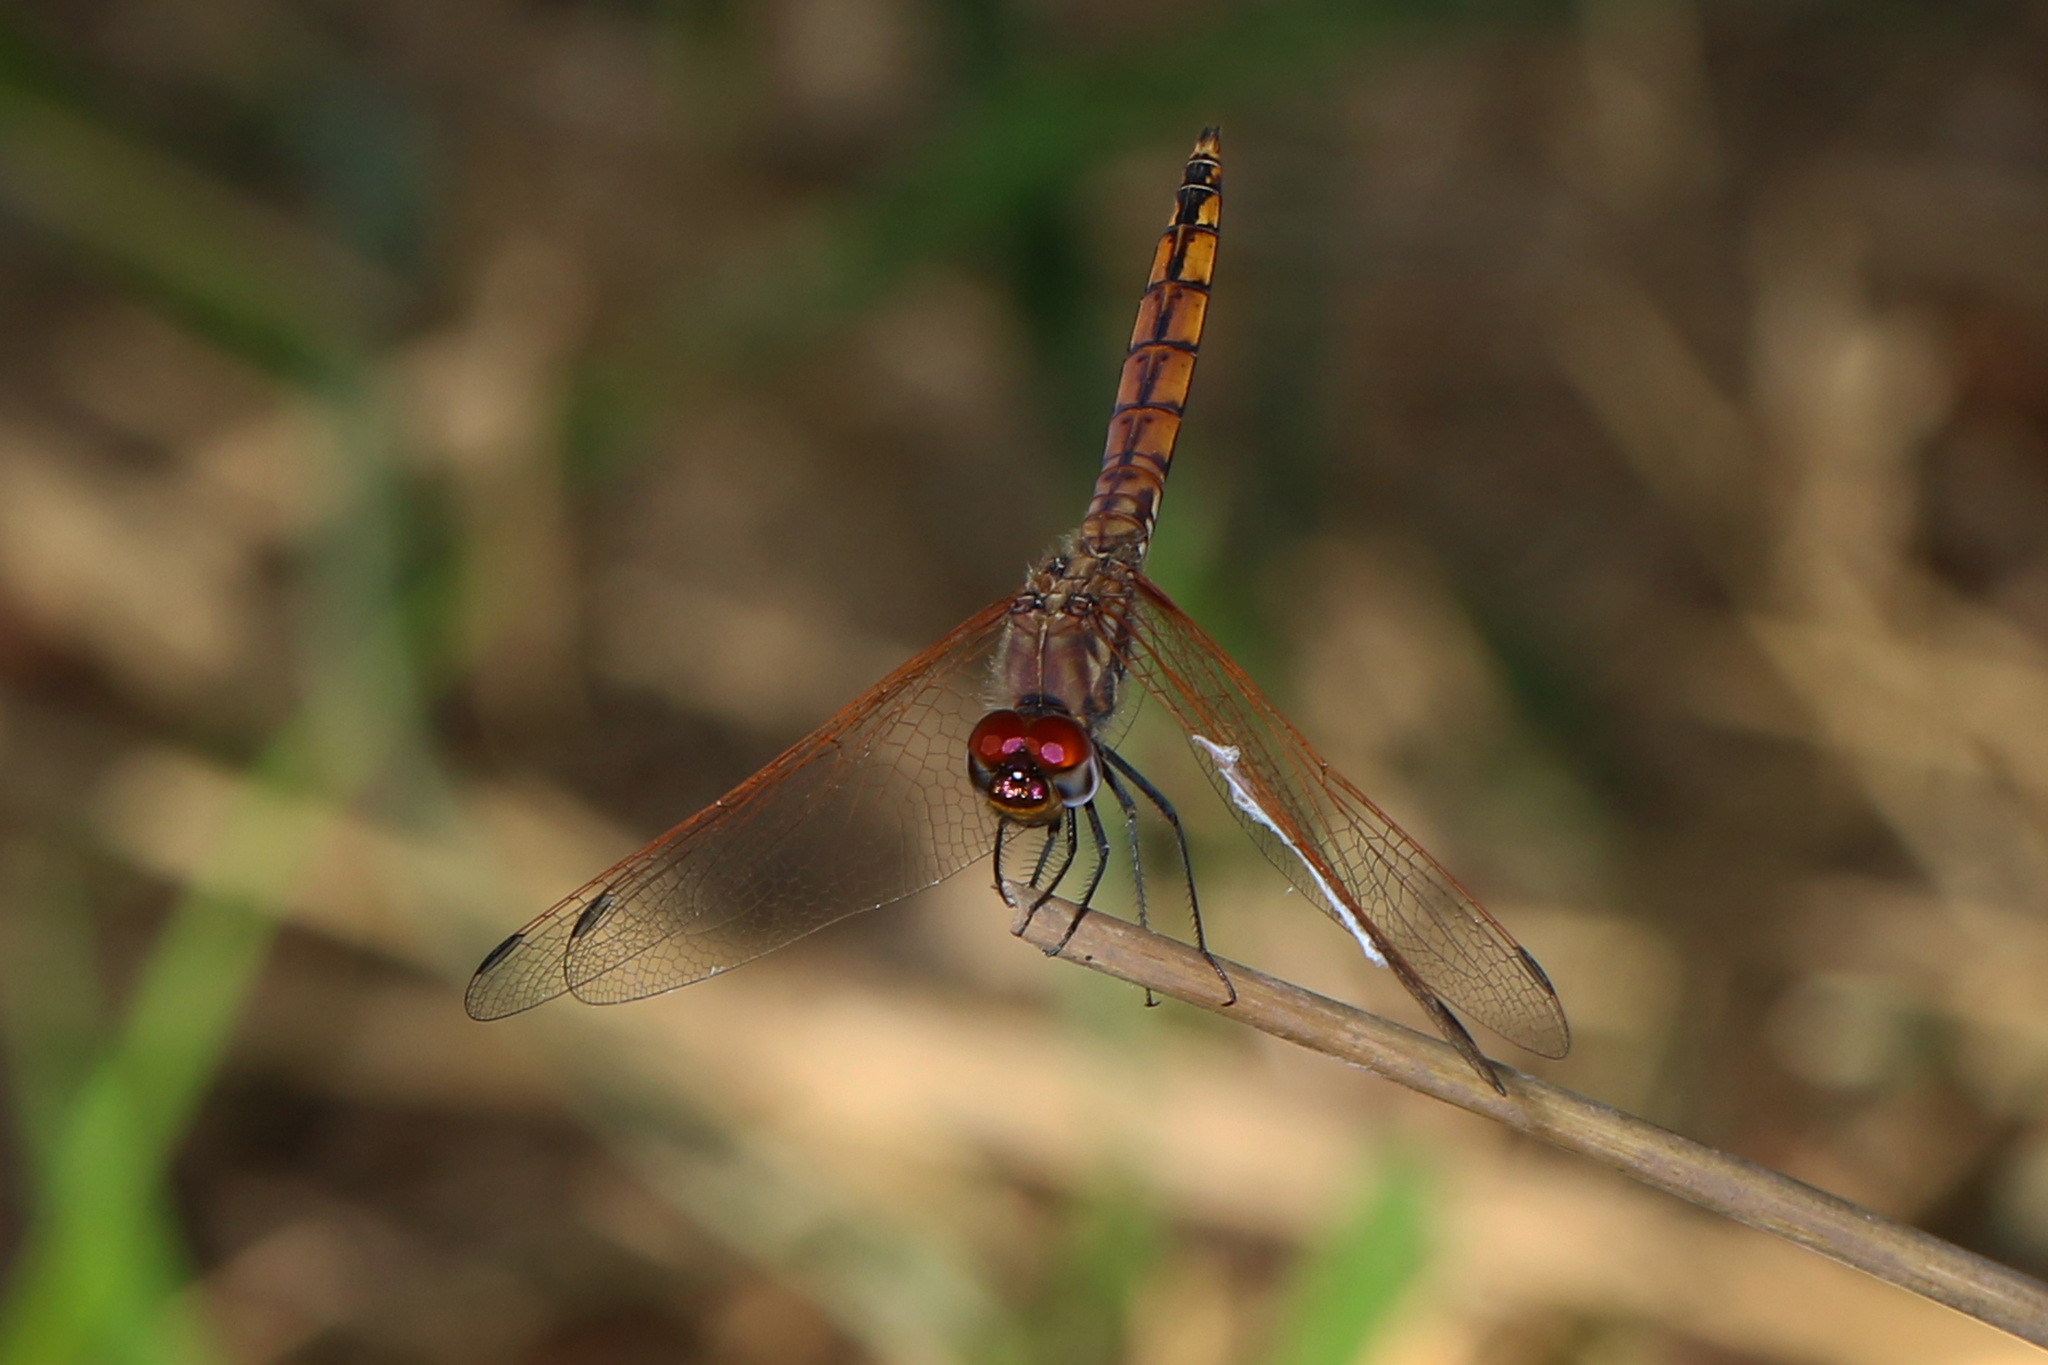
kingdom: Animalia
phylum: Arthropoda
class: Insecta
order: Odonata
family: Libellulidae
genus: Trithemis
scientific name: Trithemis annulata
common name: Violet dropwing
